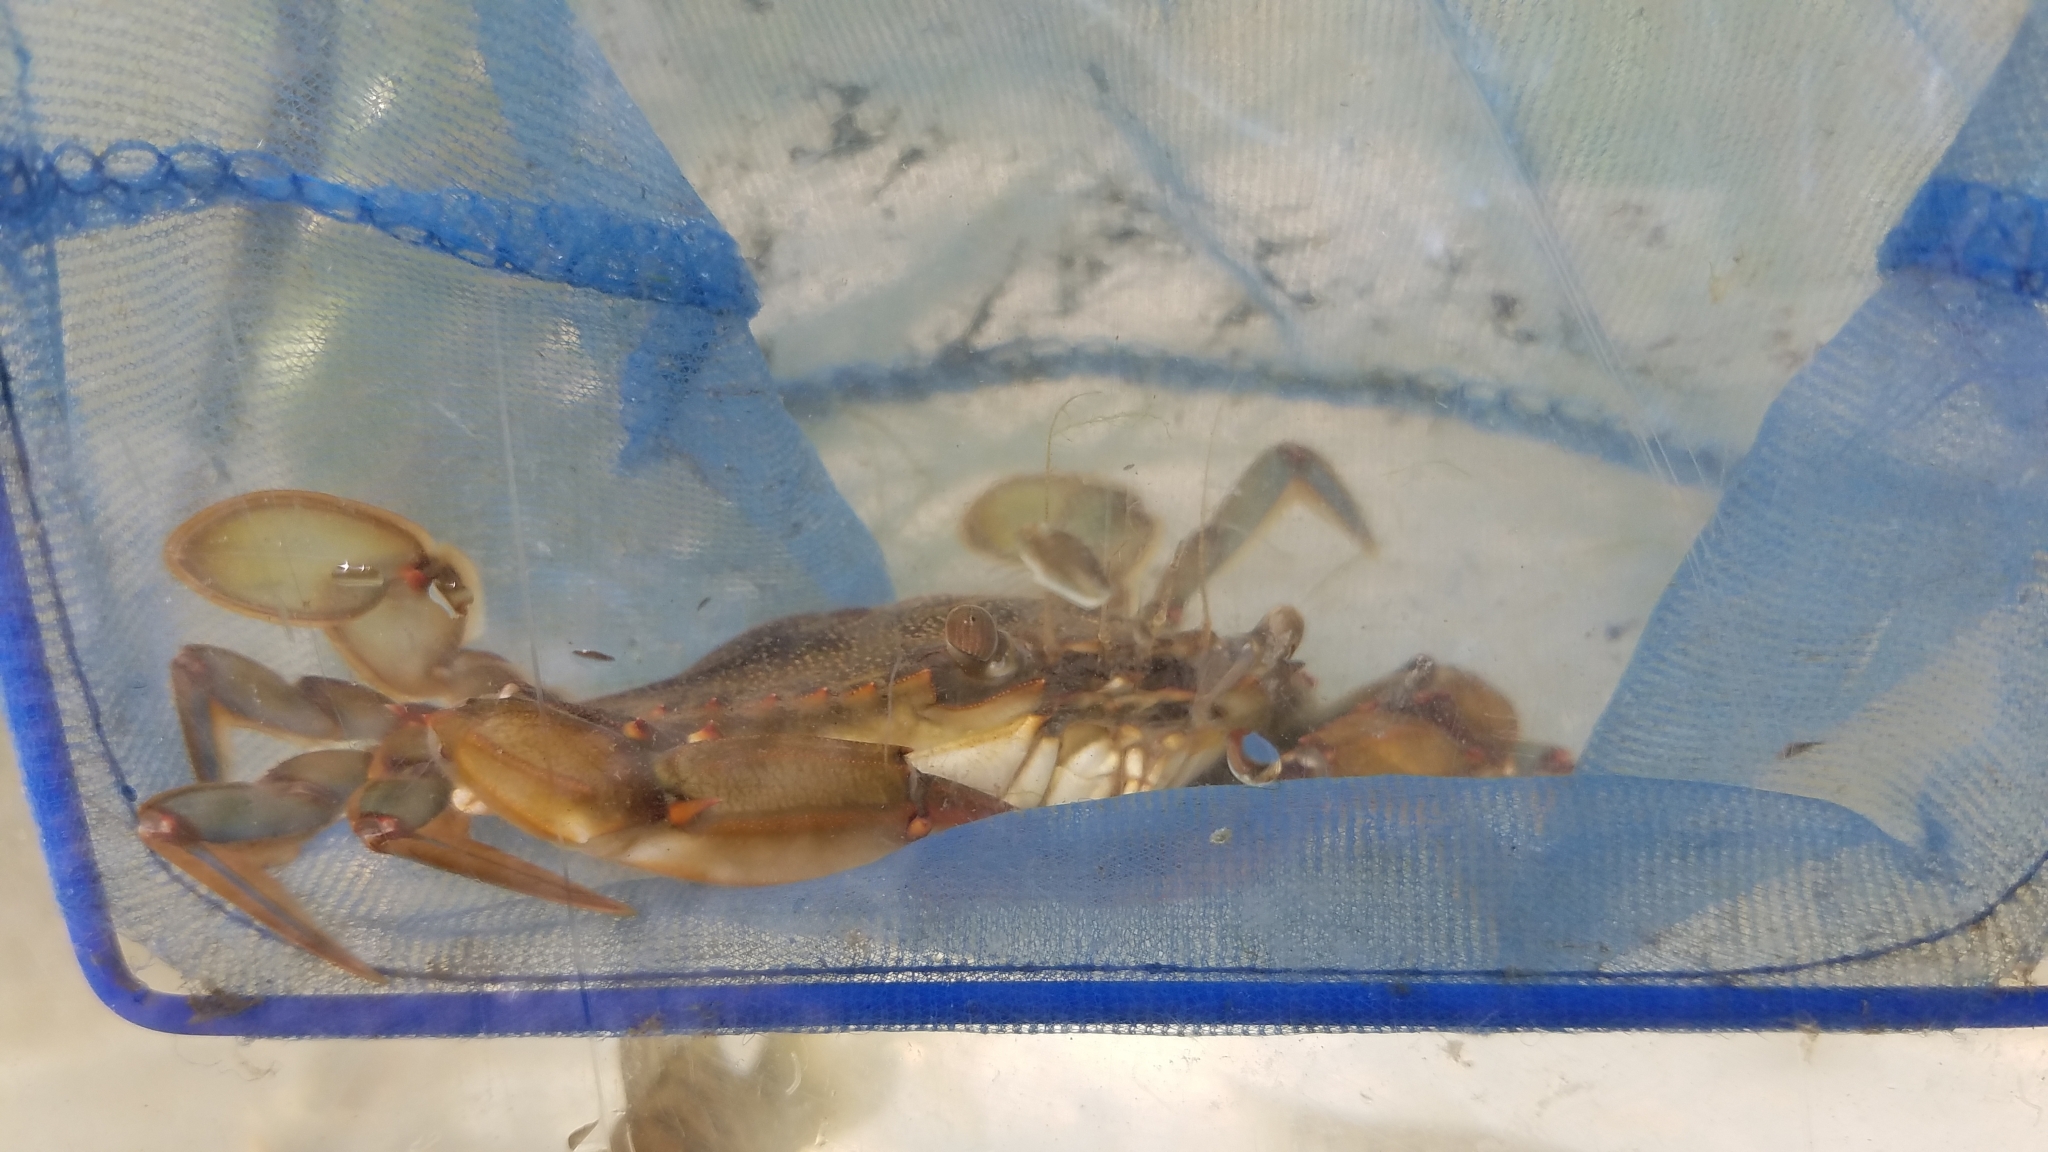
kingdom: Animalia
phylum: Arthropoda
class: Malacostraca
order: Decapoda
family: Portunidae
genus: Callinectes
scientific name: Callinectes sapidus
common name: Blue crab
